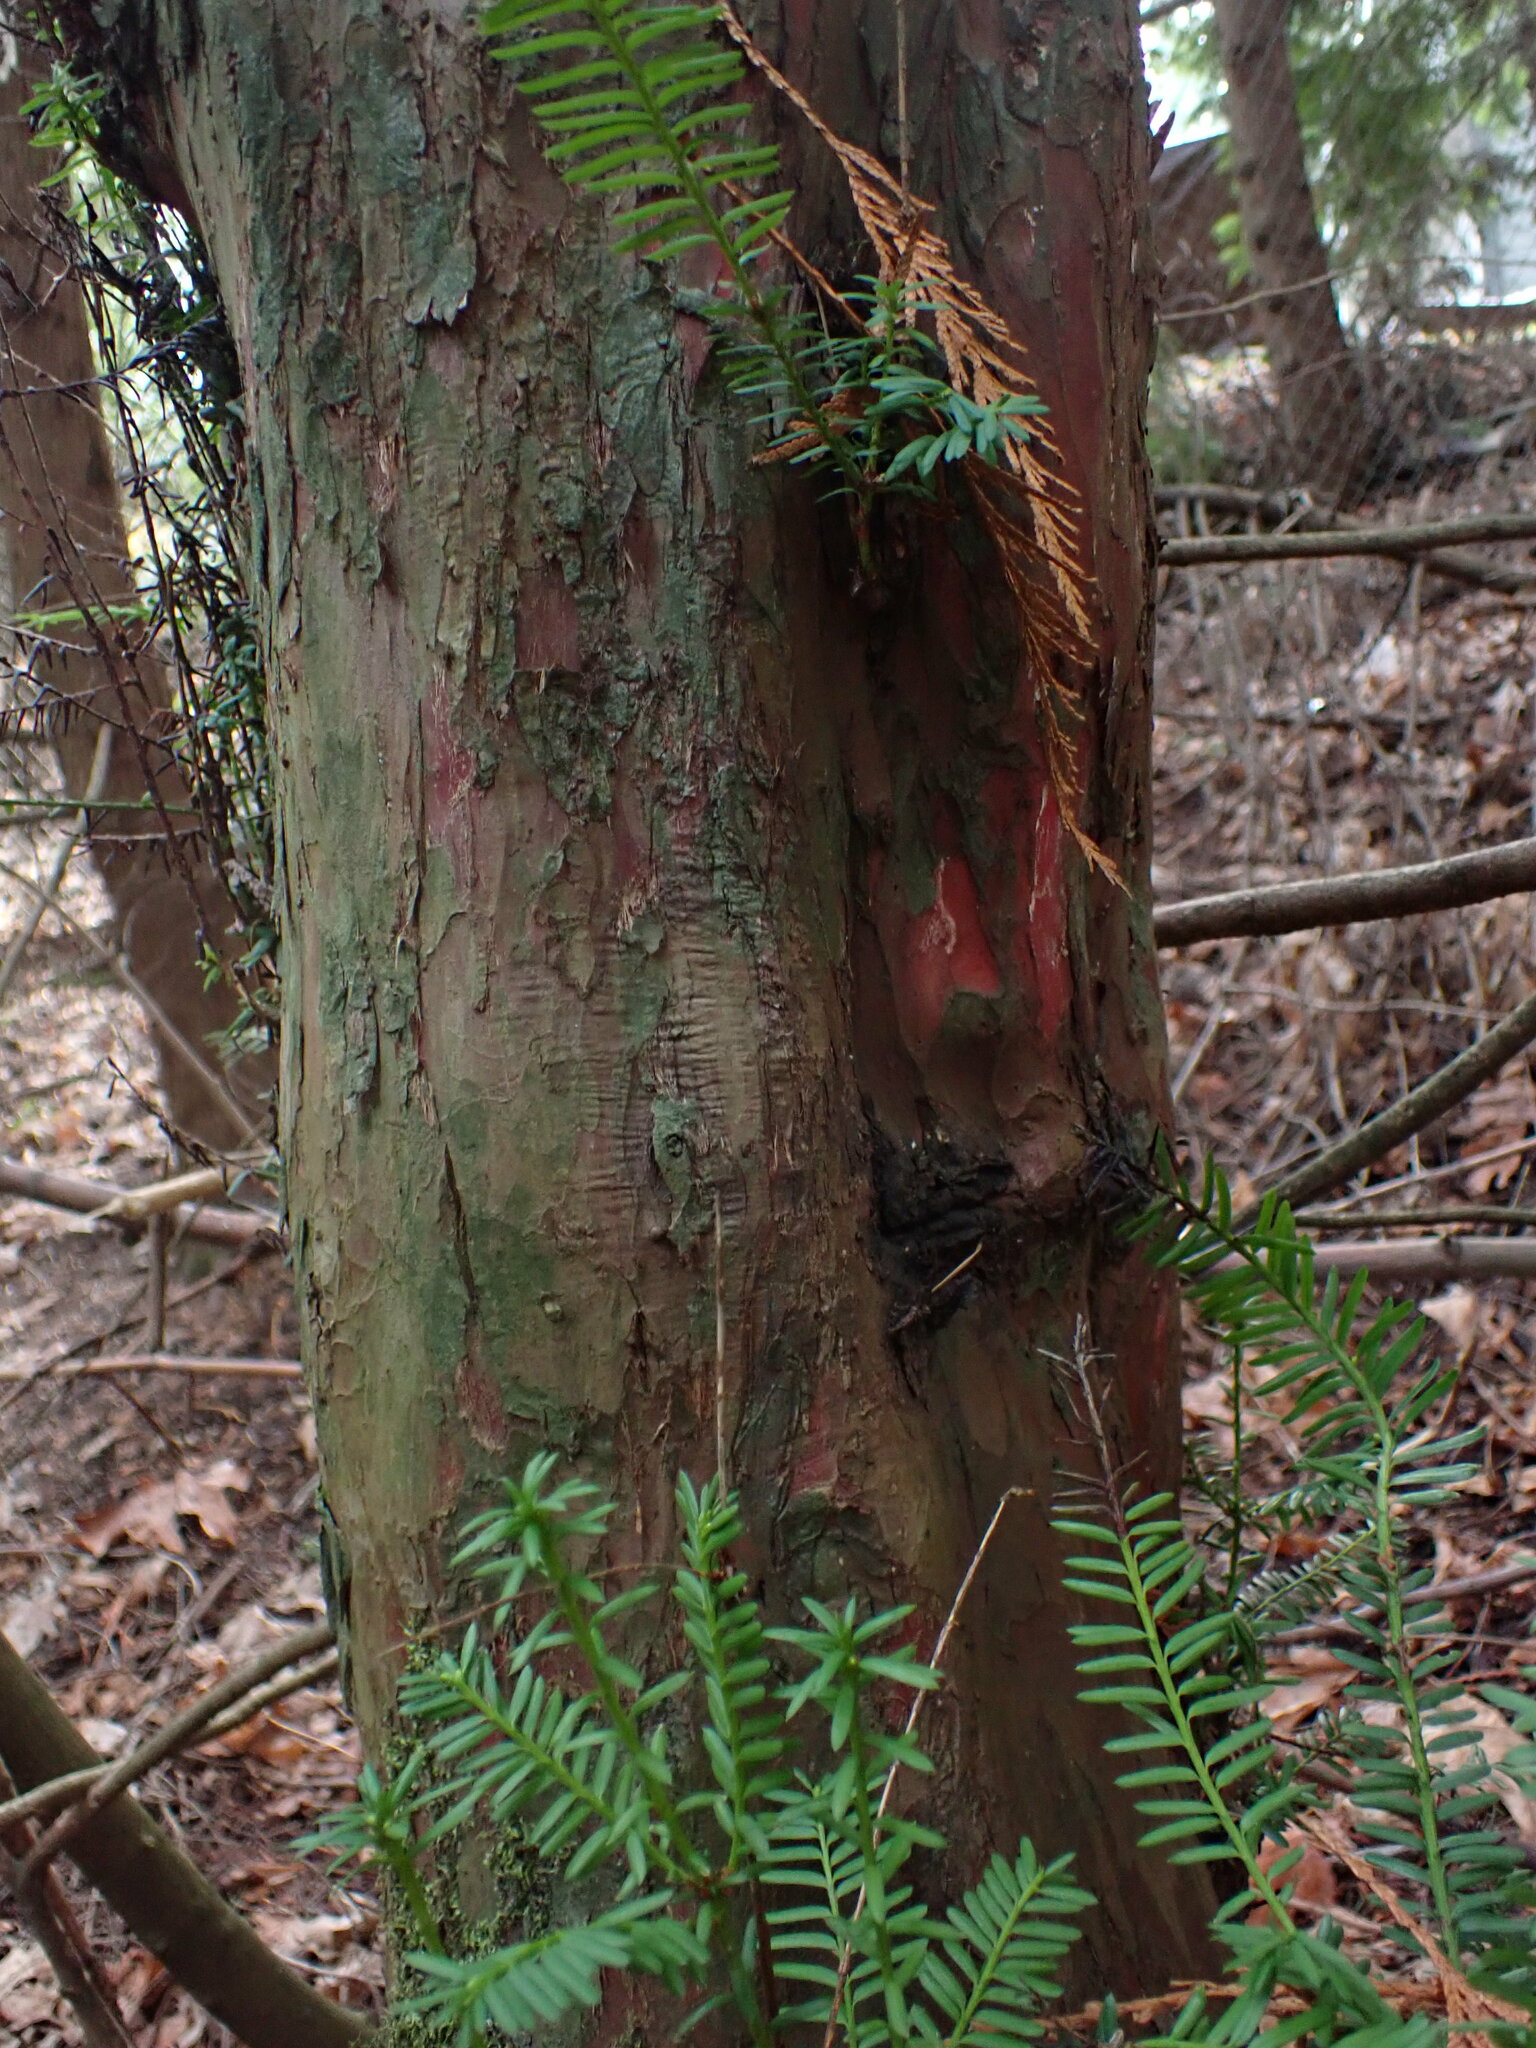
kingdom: Plantae
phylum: Tracheophyta
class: Pinopsida
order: Pinales
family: Taxaceae
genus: Taxus
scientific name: Taxus brevifolia
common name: Pacific yew
